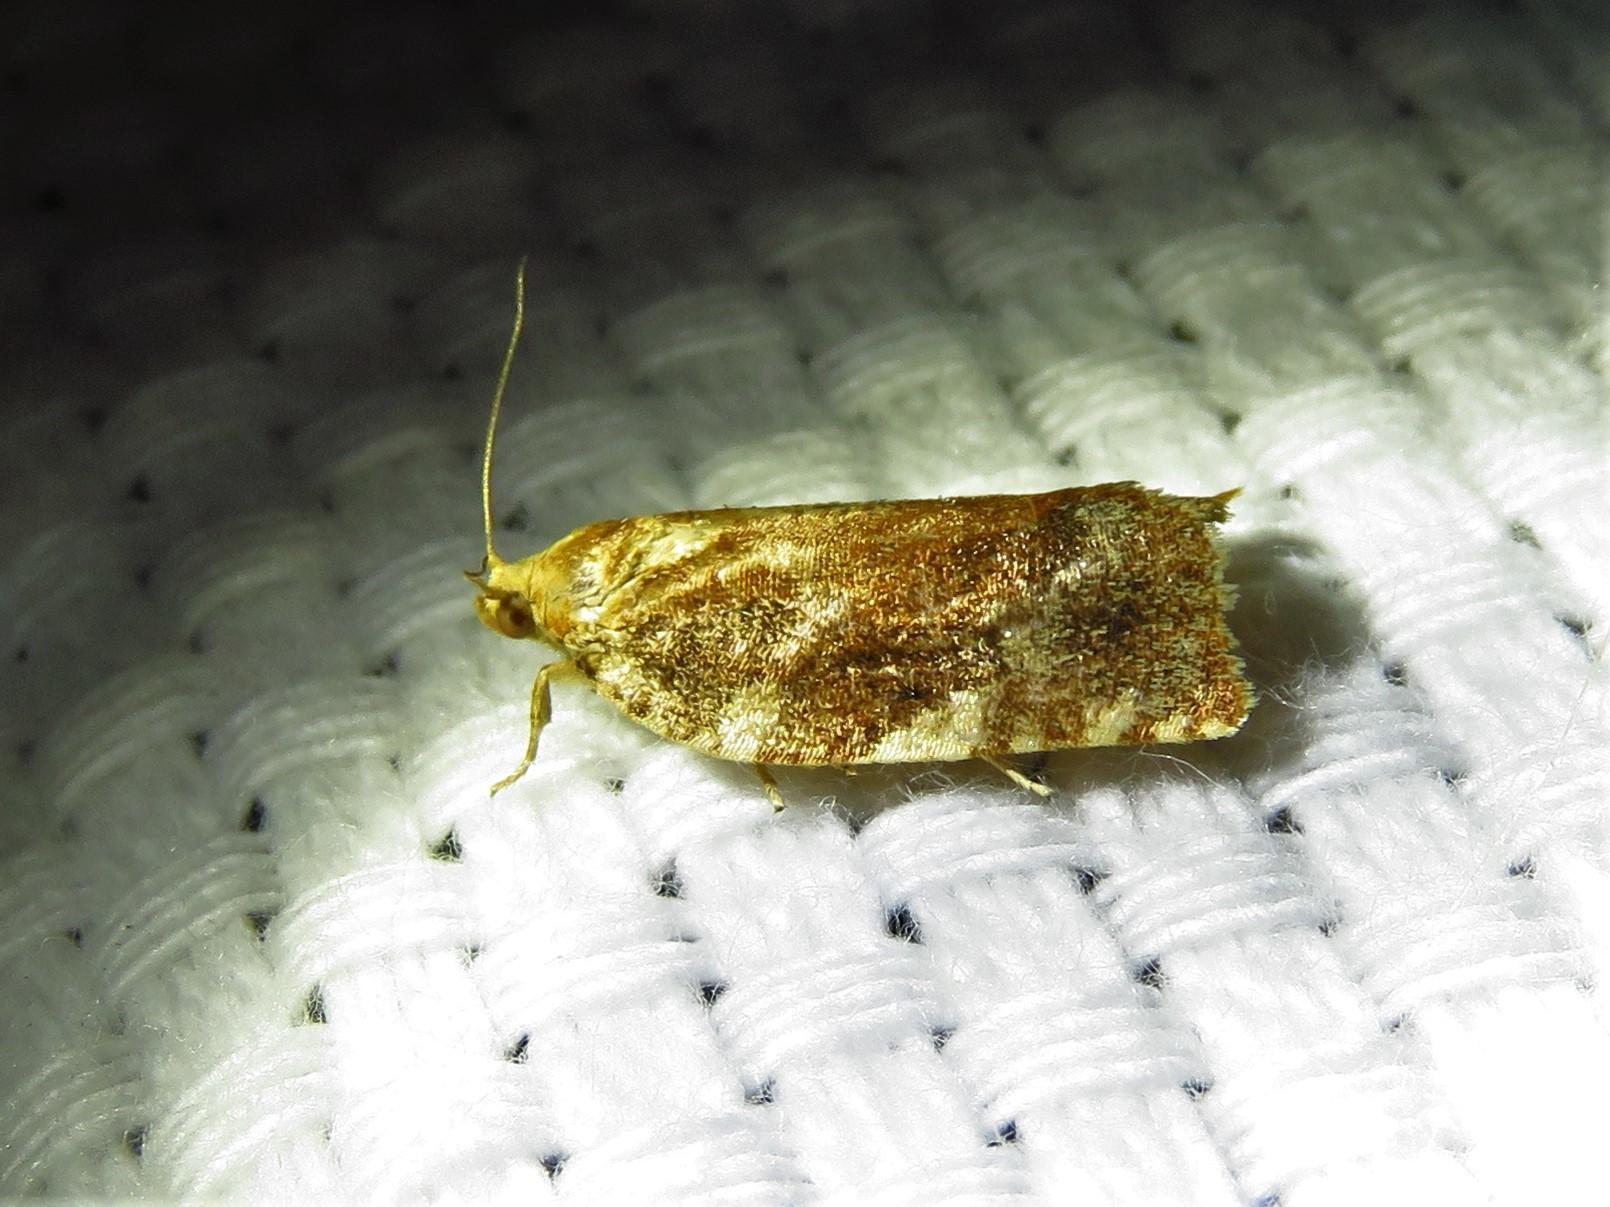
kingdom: Animalia
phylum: Arthropoda
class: Insecta
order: Lepidoptera
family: Tortricidae
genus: Archips
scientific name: Archips argyrospila
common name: Fruit-tree leafroller moth
